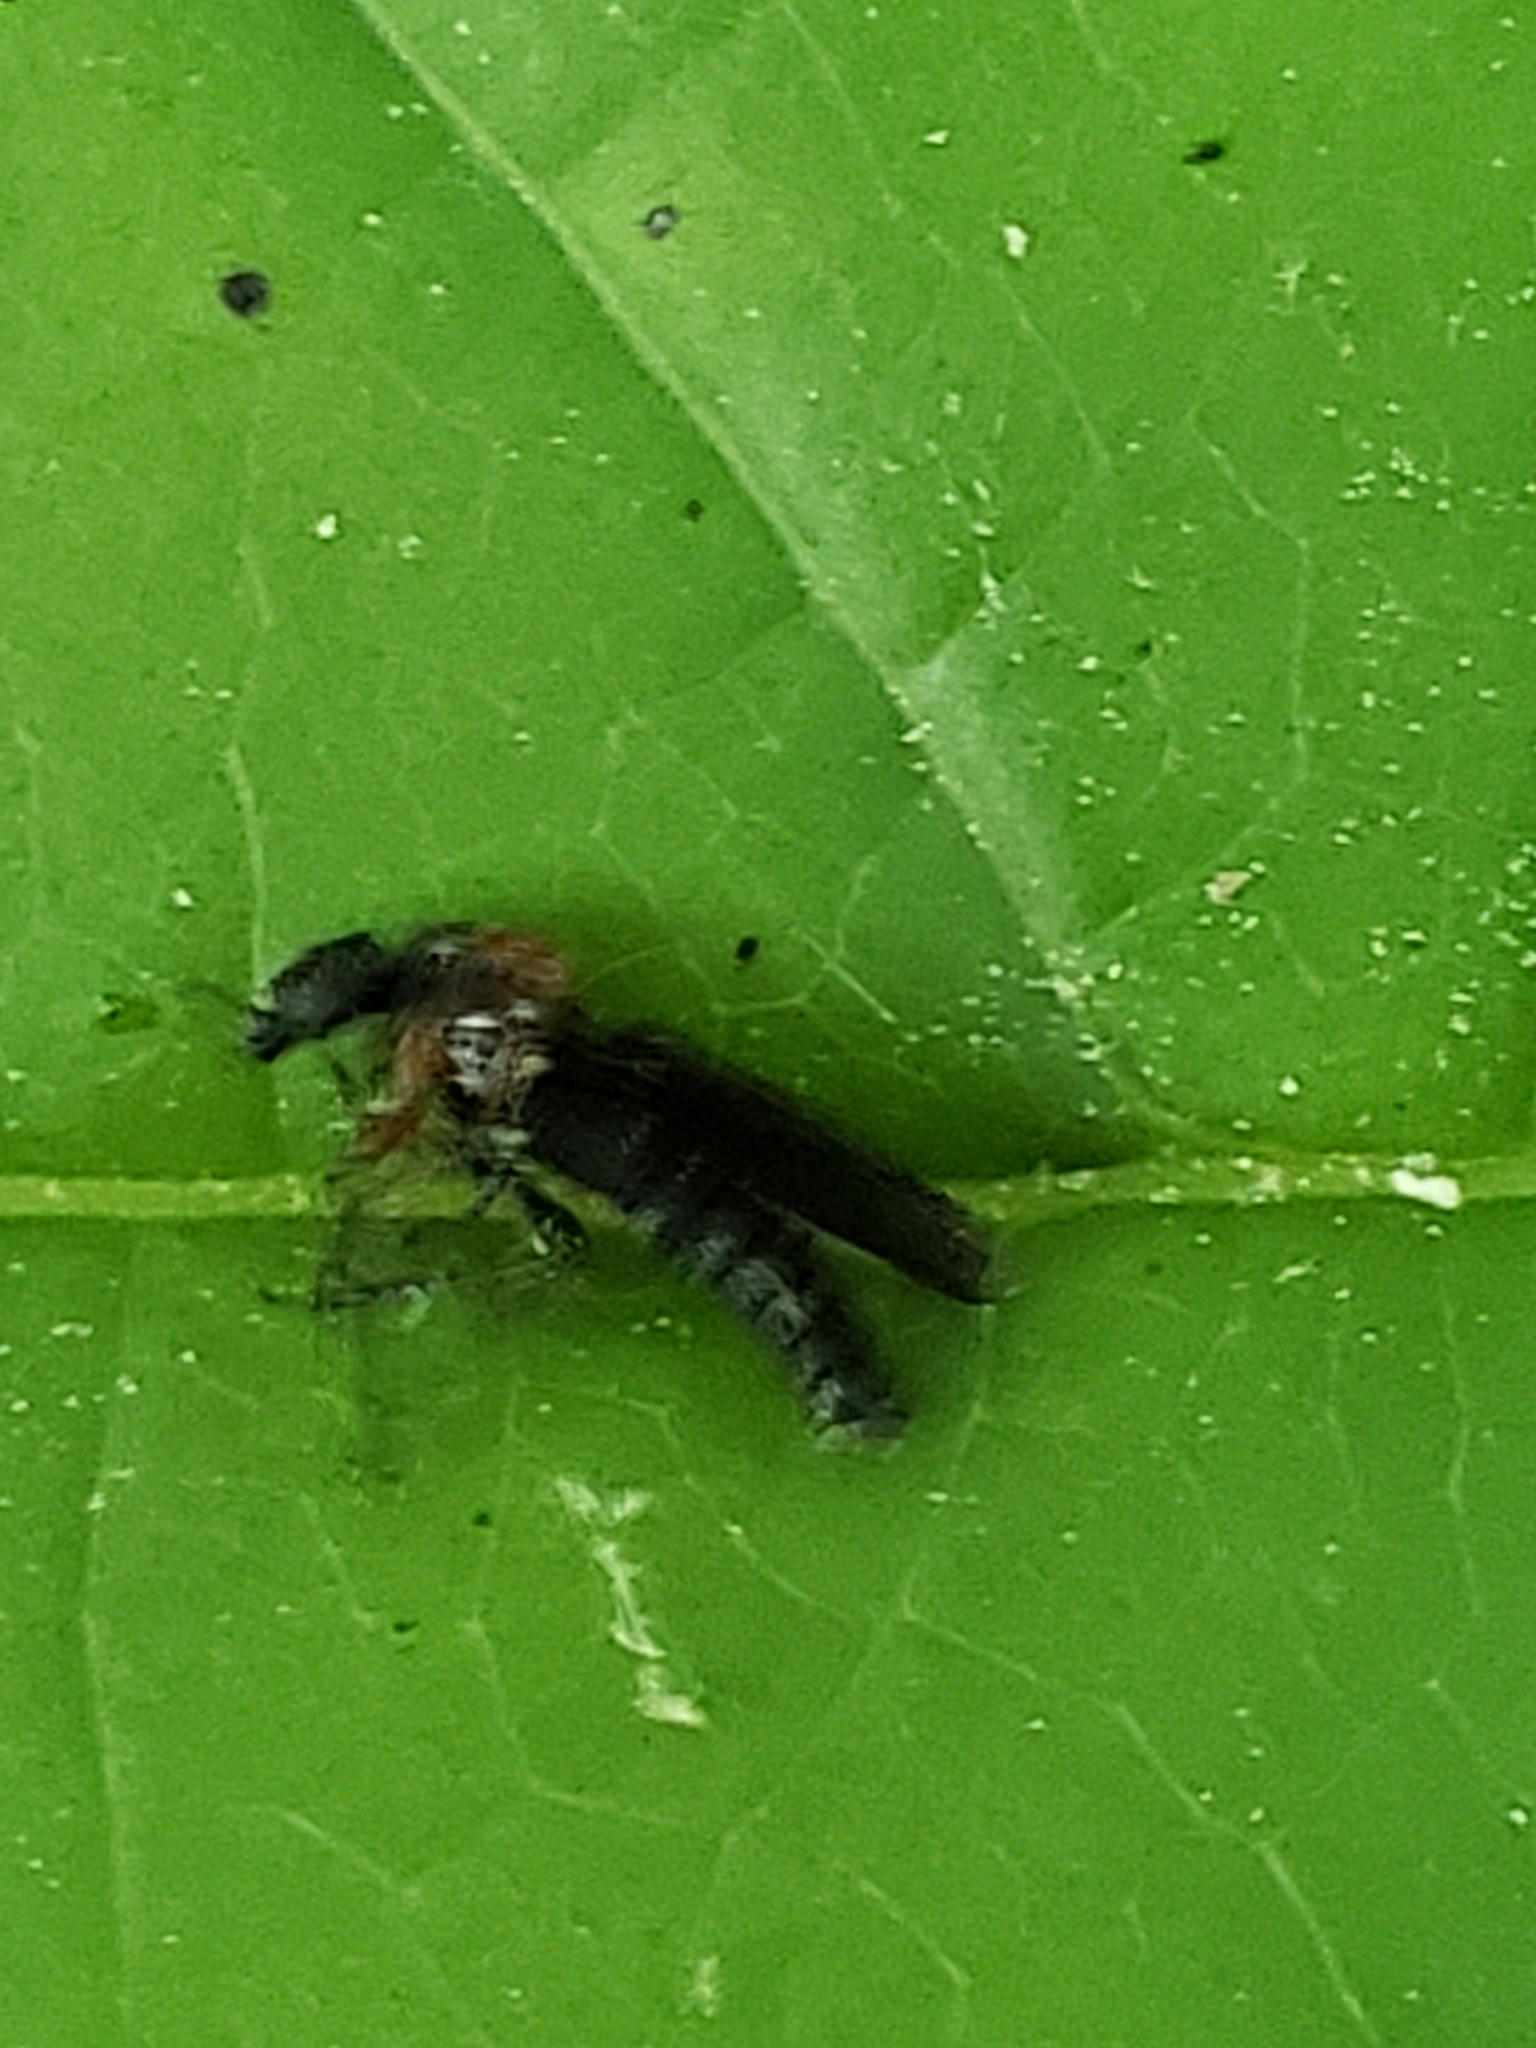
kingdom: Animalia
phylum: Arthropoda
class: Insecta
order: Diptera
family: Bibionidae
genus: Dilophus
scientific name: Dilophus spinipes
